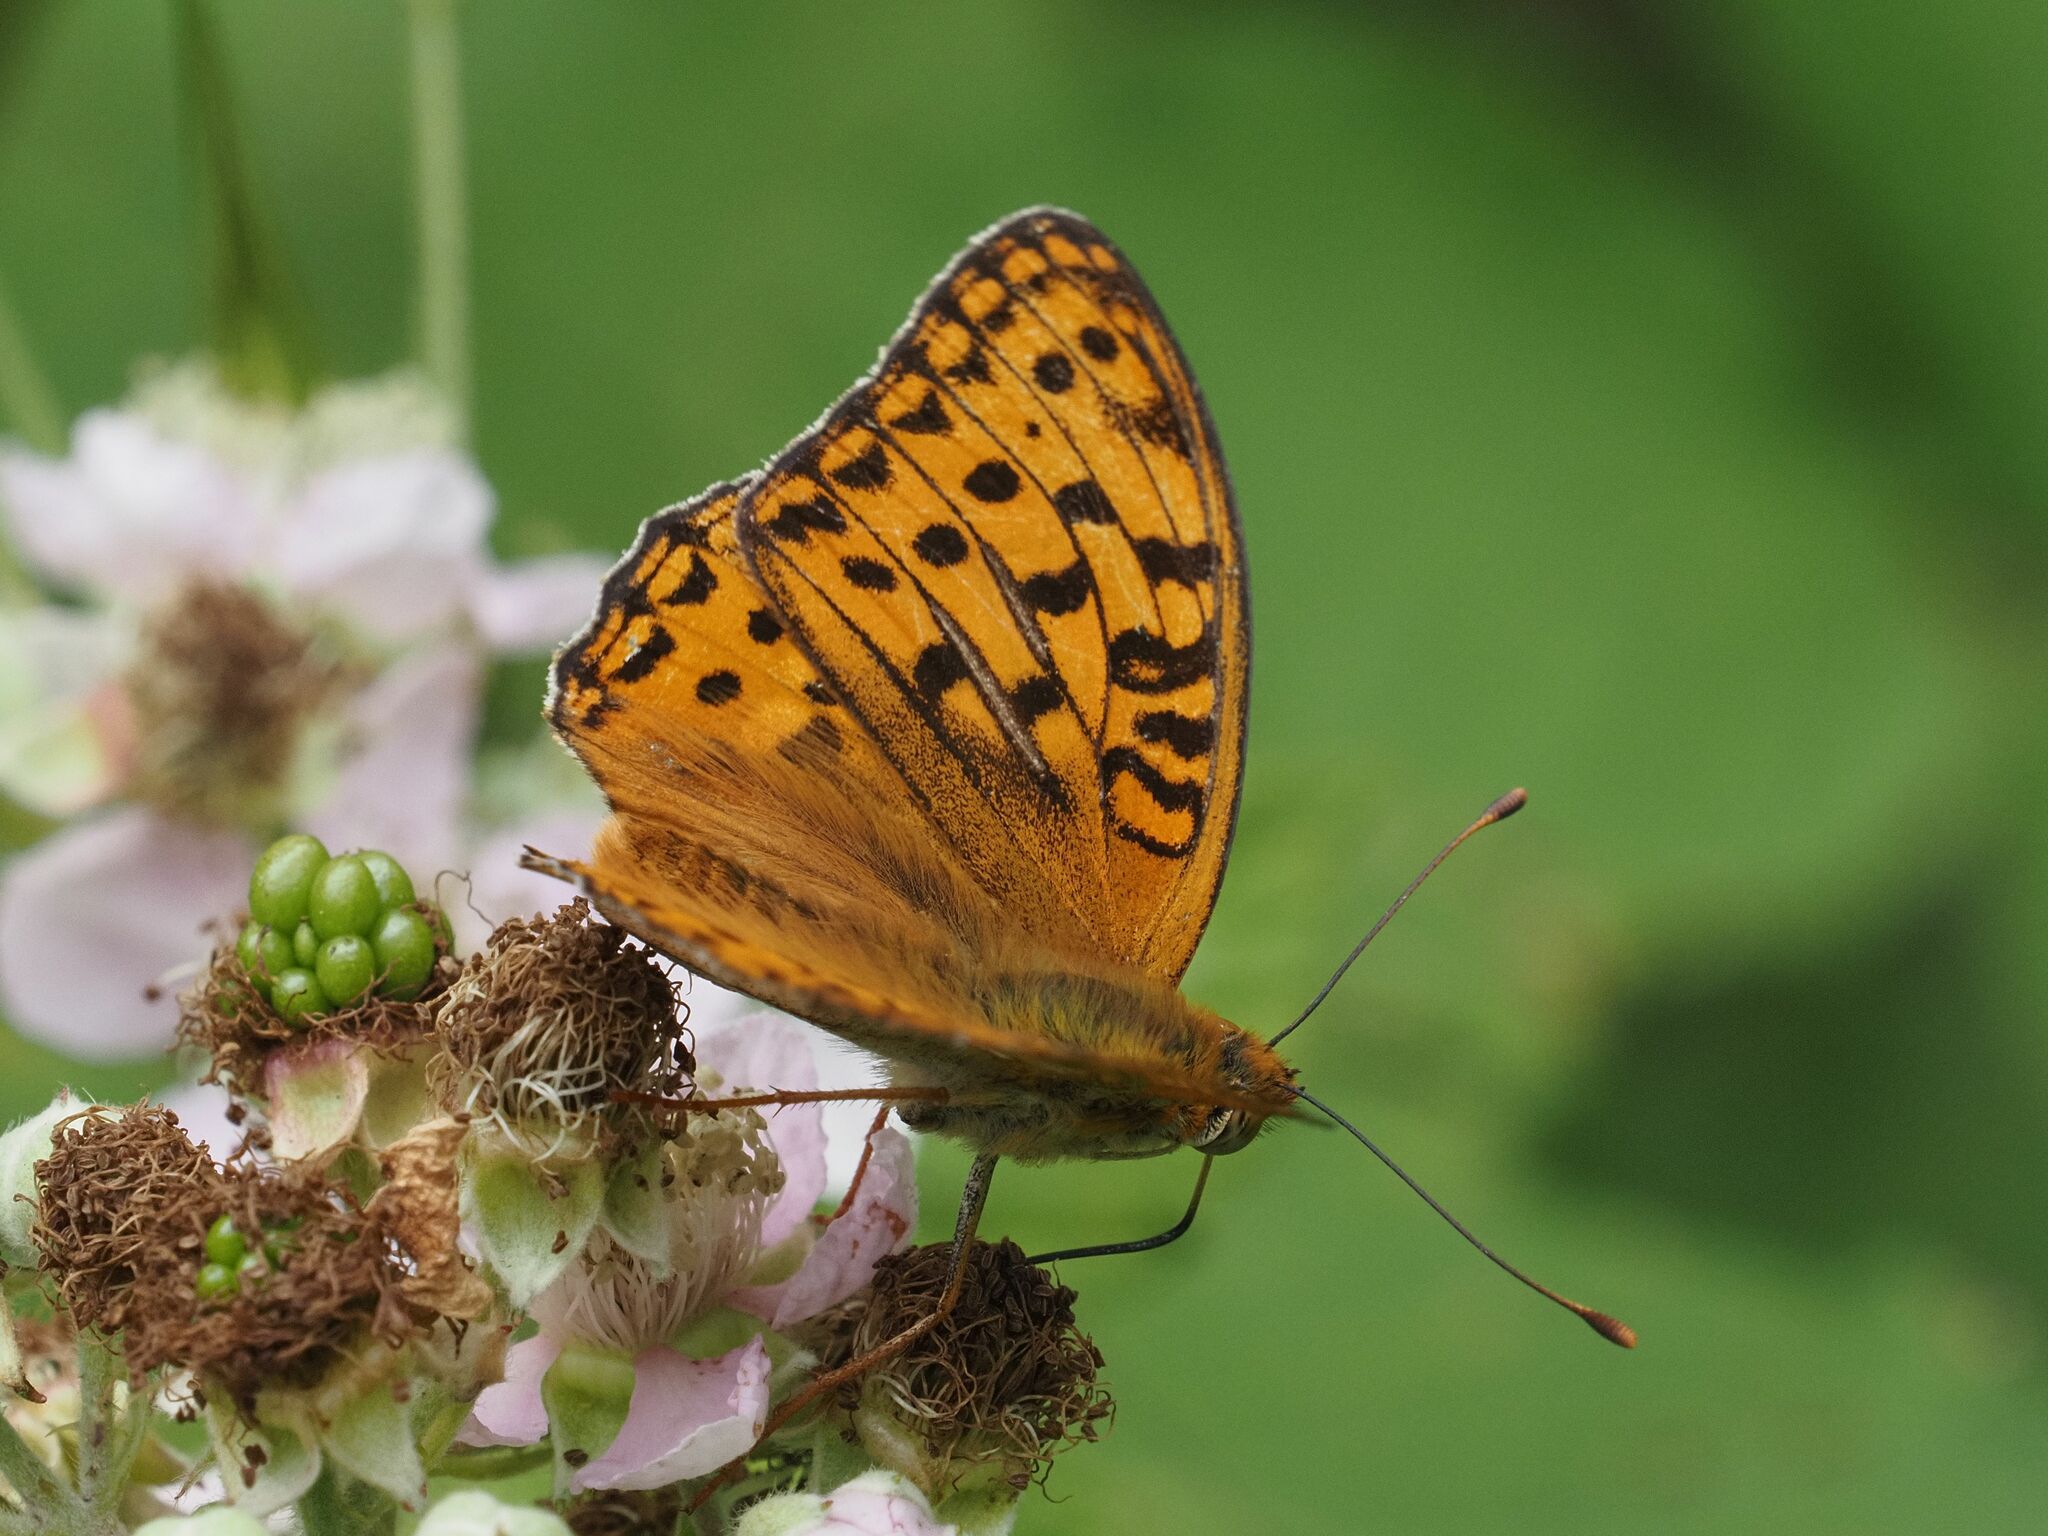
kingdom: Animalia
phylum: Arthropoda
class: Insecta
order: Lepidoptera
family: Nymphalidae
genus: Fabriciana
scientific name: Fabriciana adippe
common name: High brown fritillary
